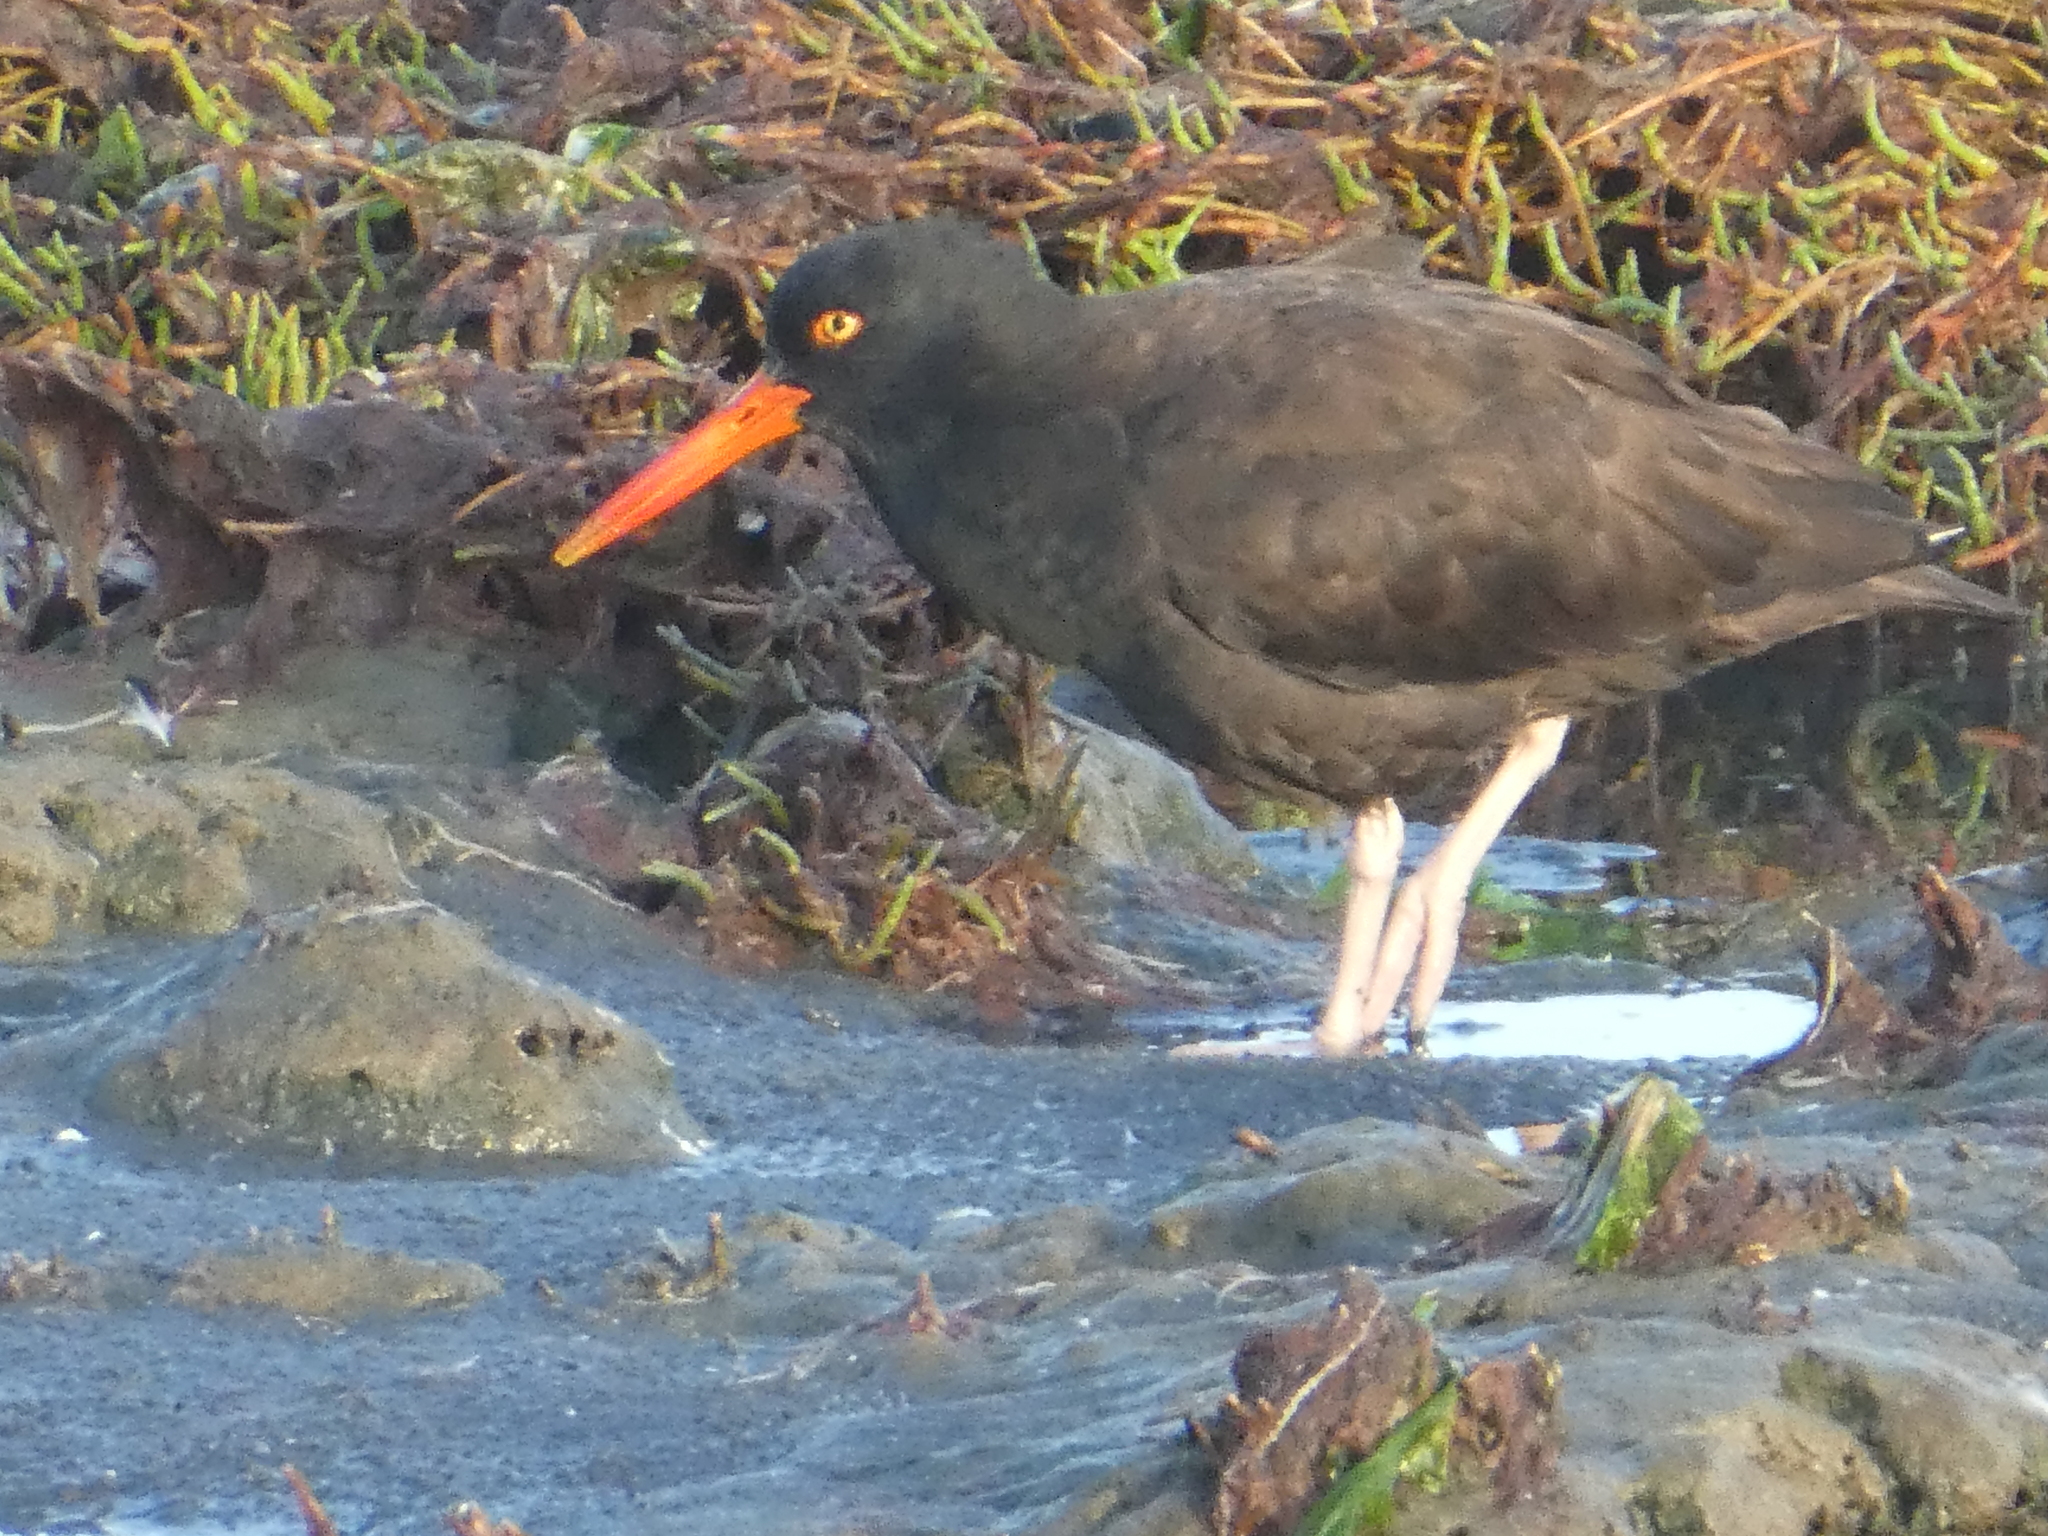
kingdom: Animalia
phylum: Chordata
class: Aves
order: Charadriiformes
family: Haematopodidae
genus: Haematopus
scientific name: Haematopus bachmani
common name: Black oystercatcher
